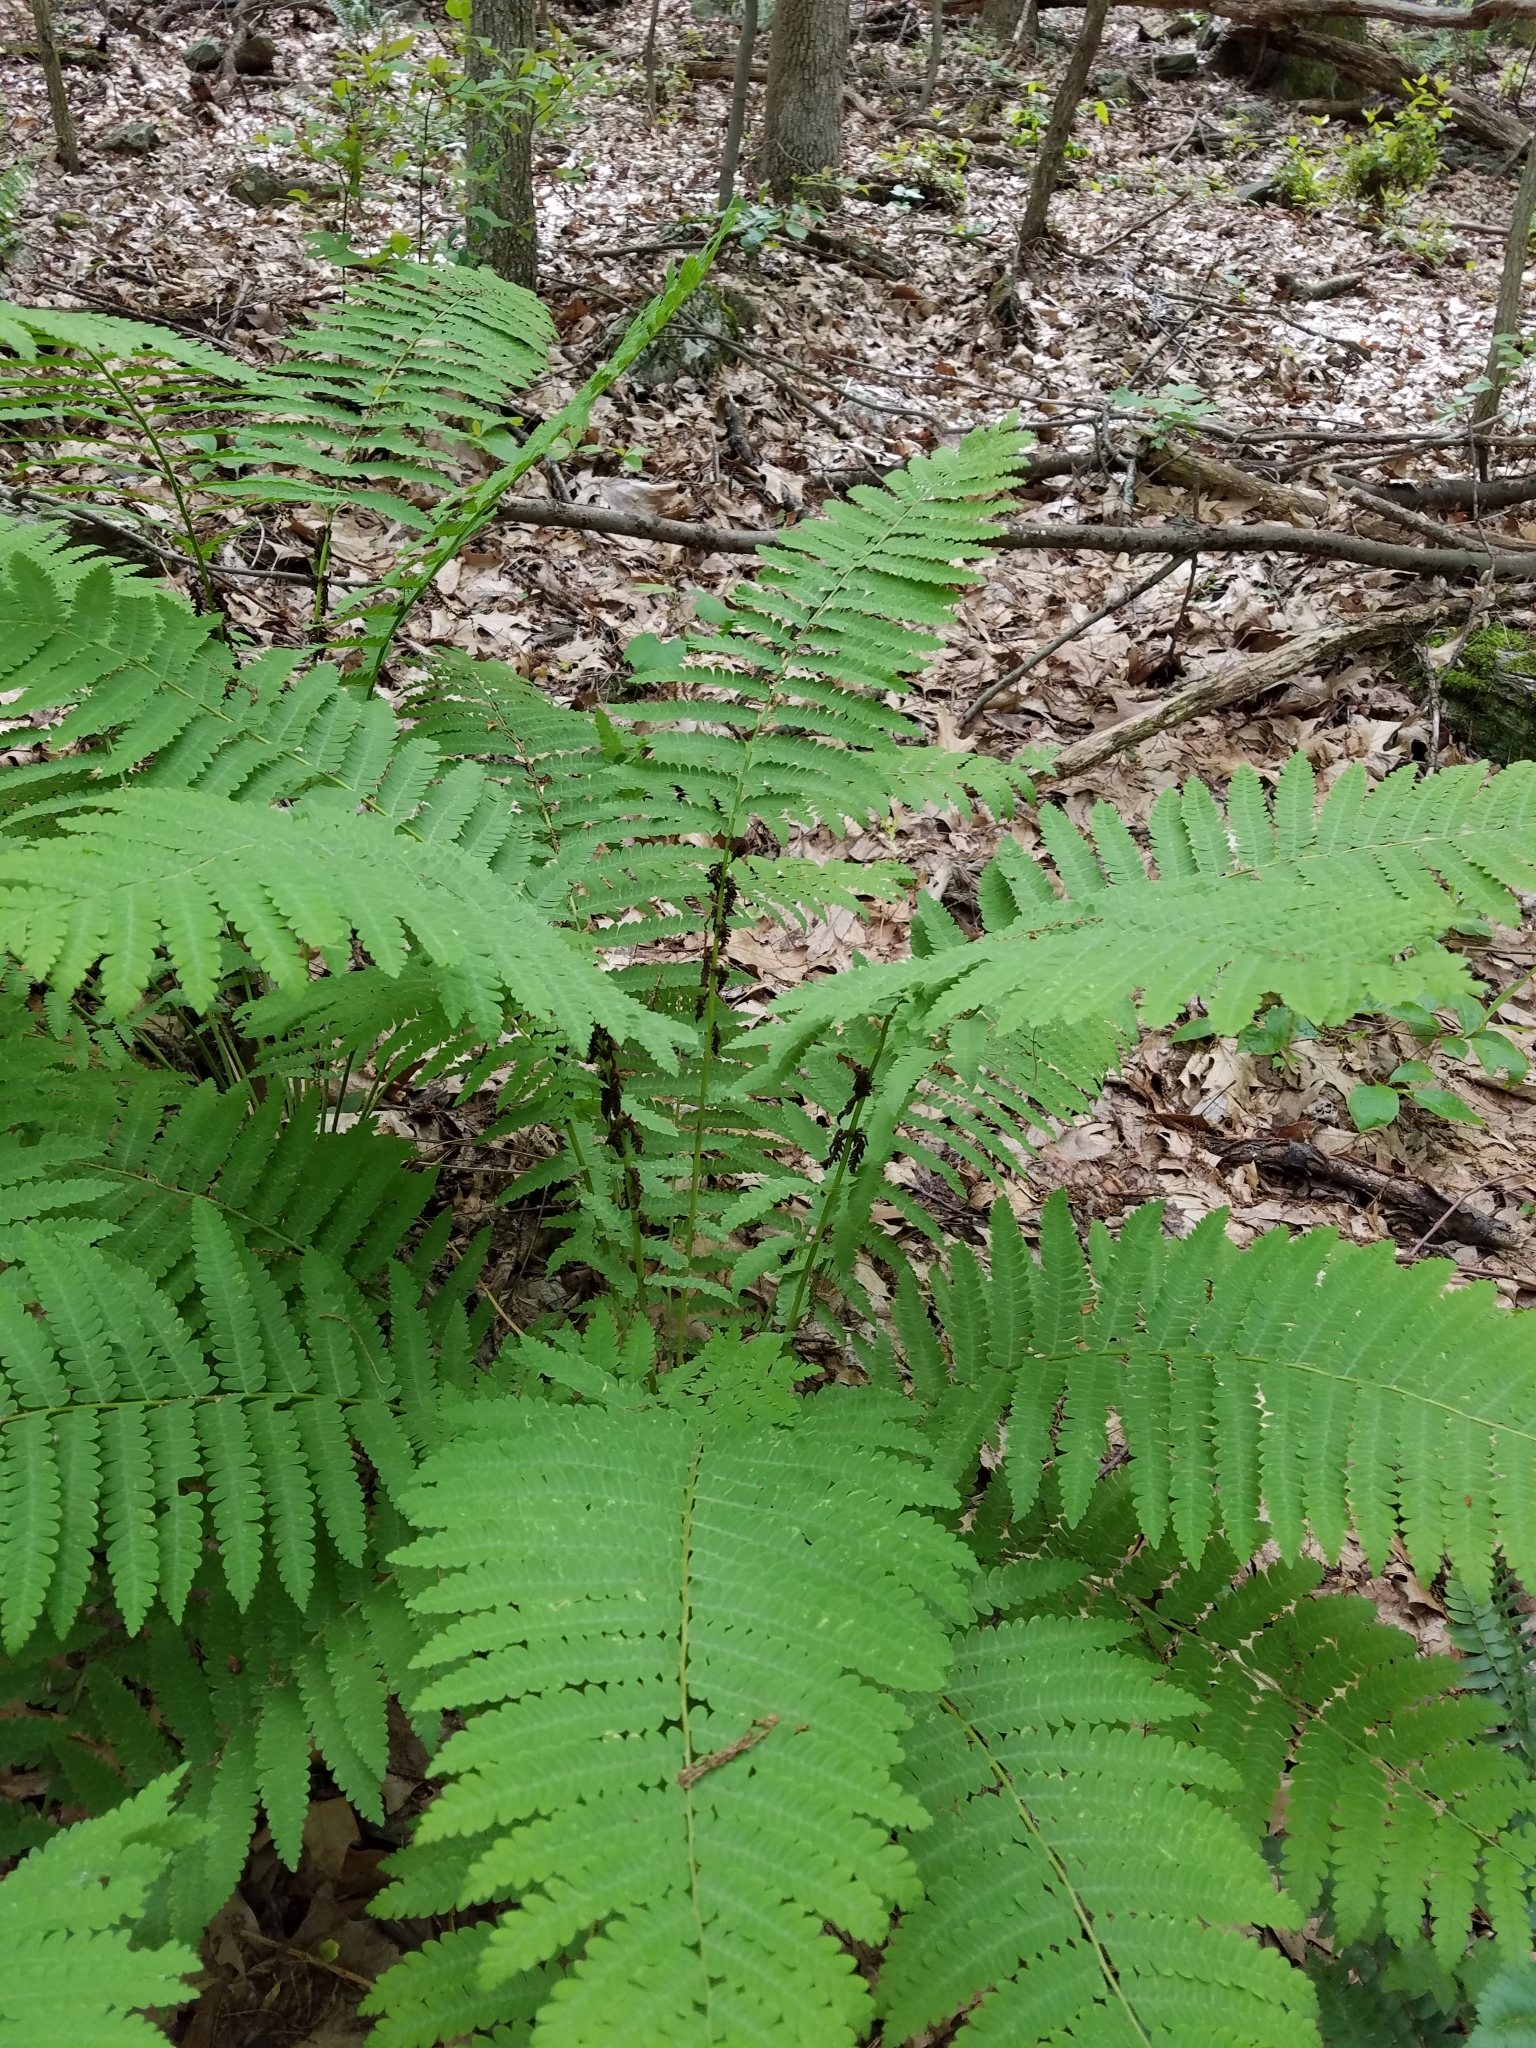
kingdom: Plantae
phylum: Tracheophyta
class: Polypodiopsida
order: Osmundales
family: Osmundaceae
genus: Claytosmunda
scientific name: Claytosmunda claytoniana
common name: Clayton's fern
